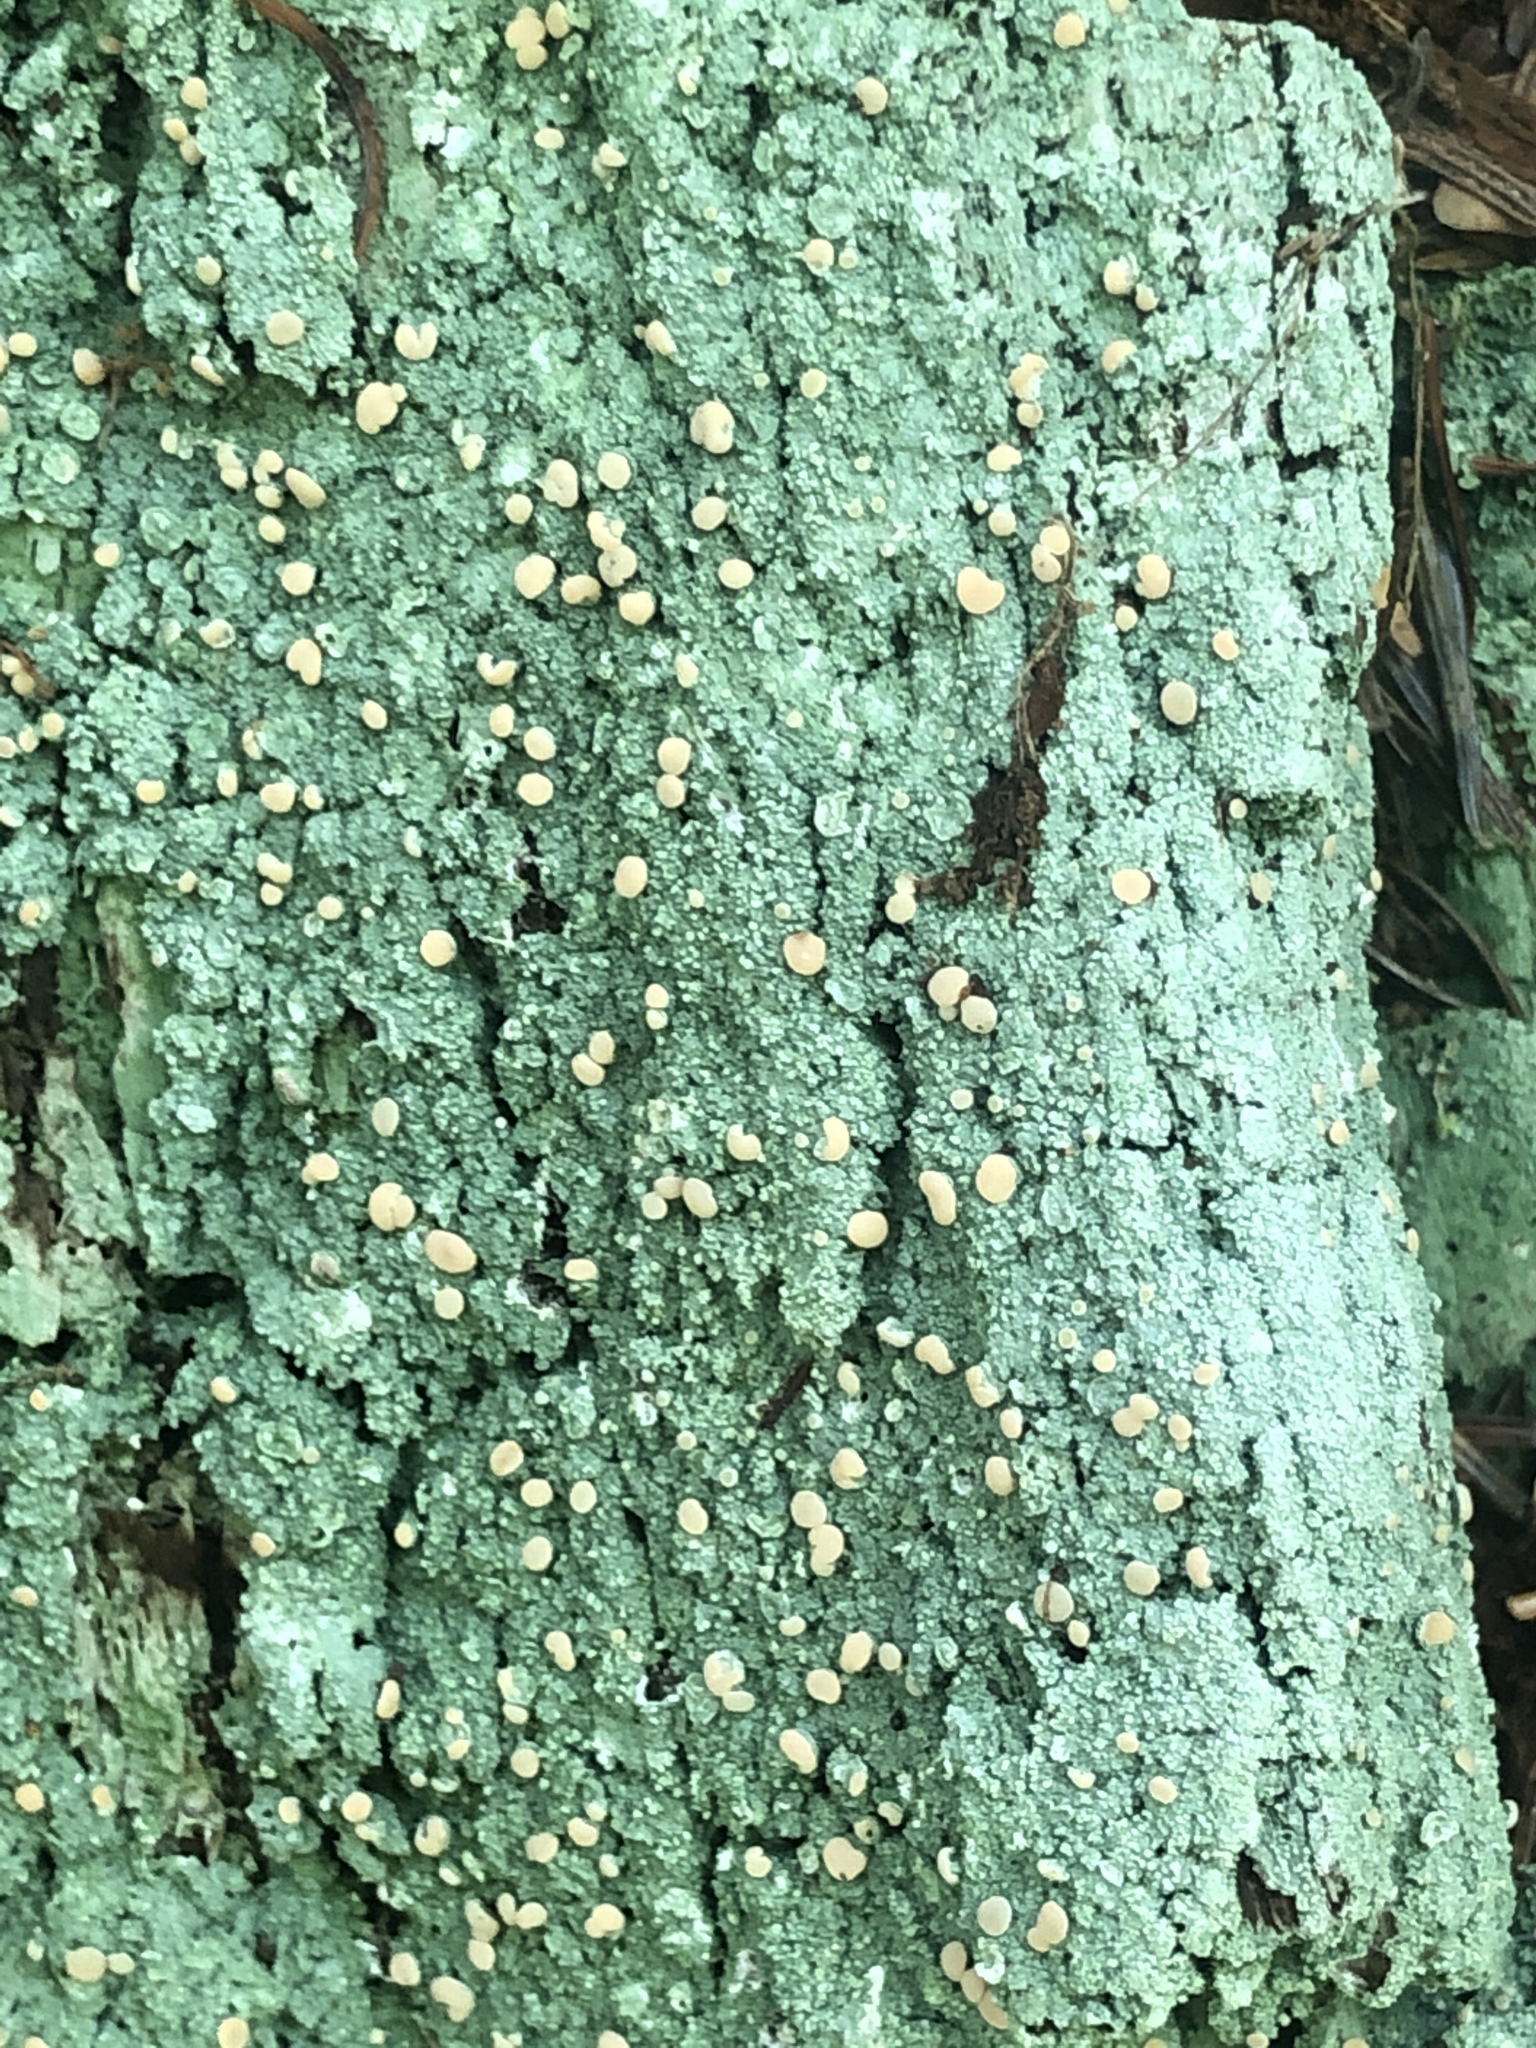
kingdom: Fungi
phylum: Ascomycota
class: Lecanoromycetes
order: Pertusariales
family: Icmadophilaceae
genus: Icmadophila
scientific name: Icmadophila ericetorum
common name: Candy lichen
